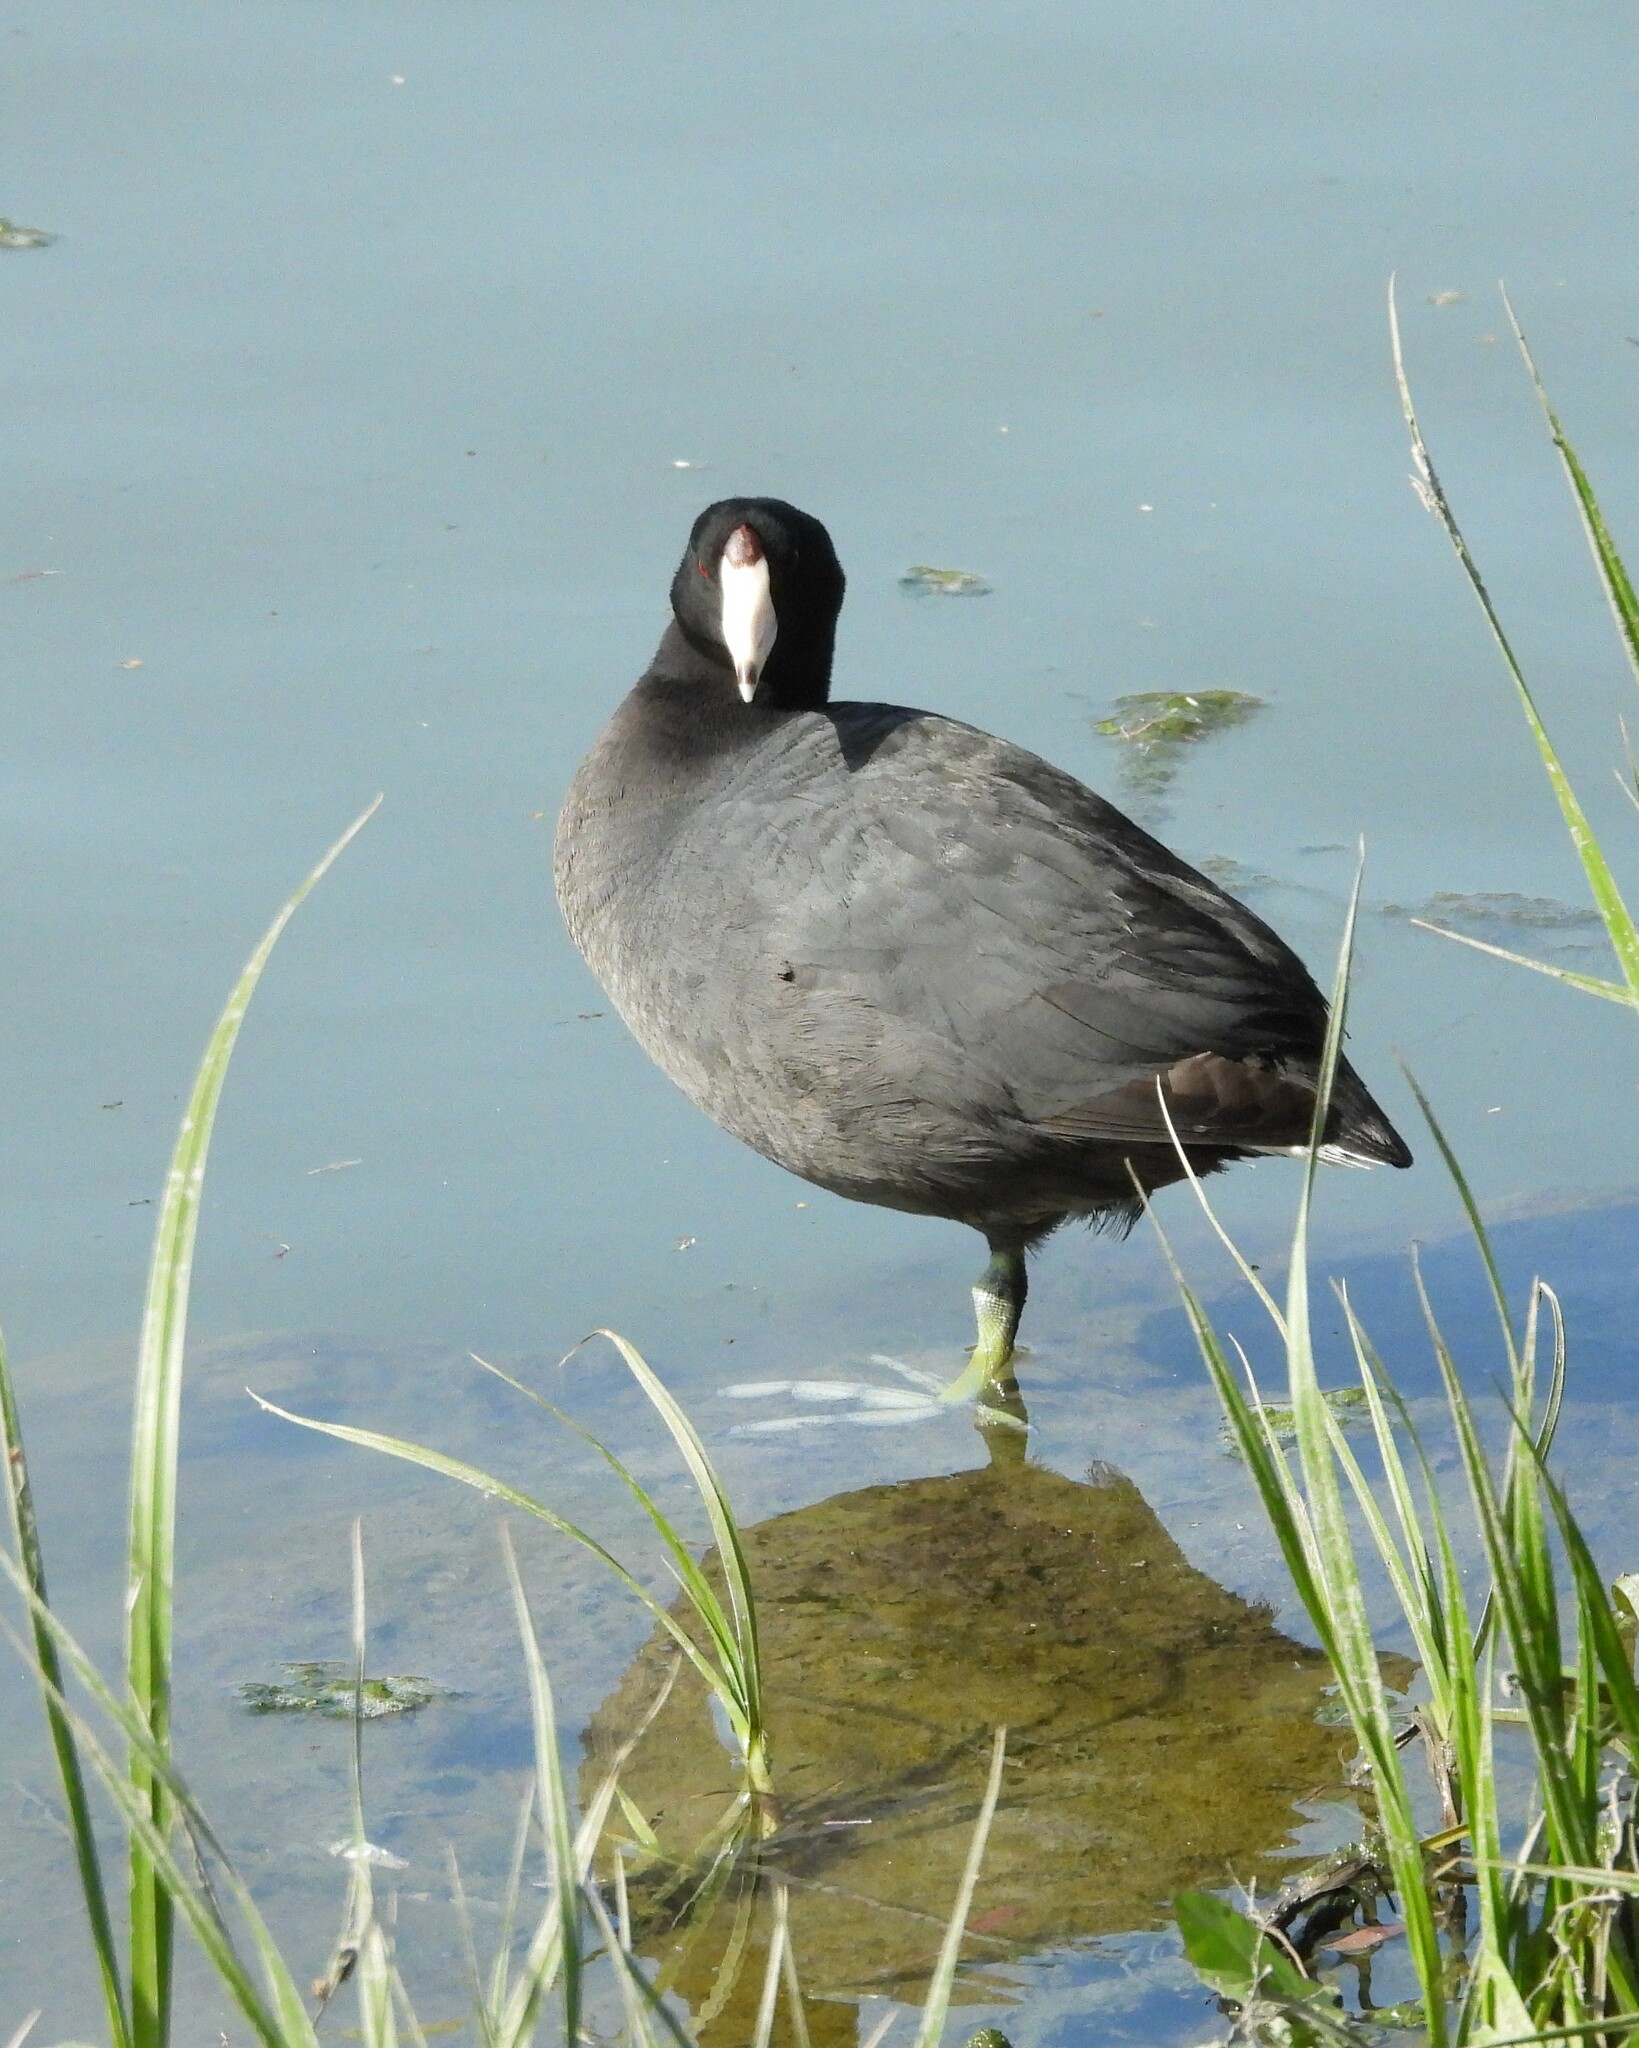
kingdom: Animalia
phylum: Chordata
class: Aves
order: Gruiformes
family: Rallidae
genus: Fulica
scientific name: Fulica americana
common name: American coot
